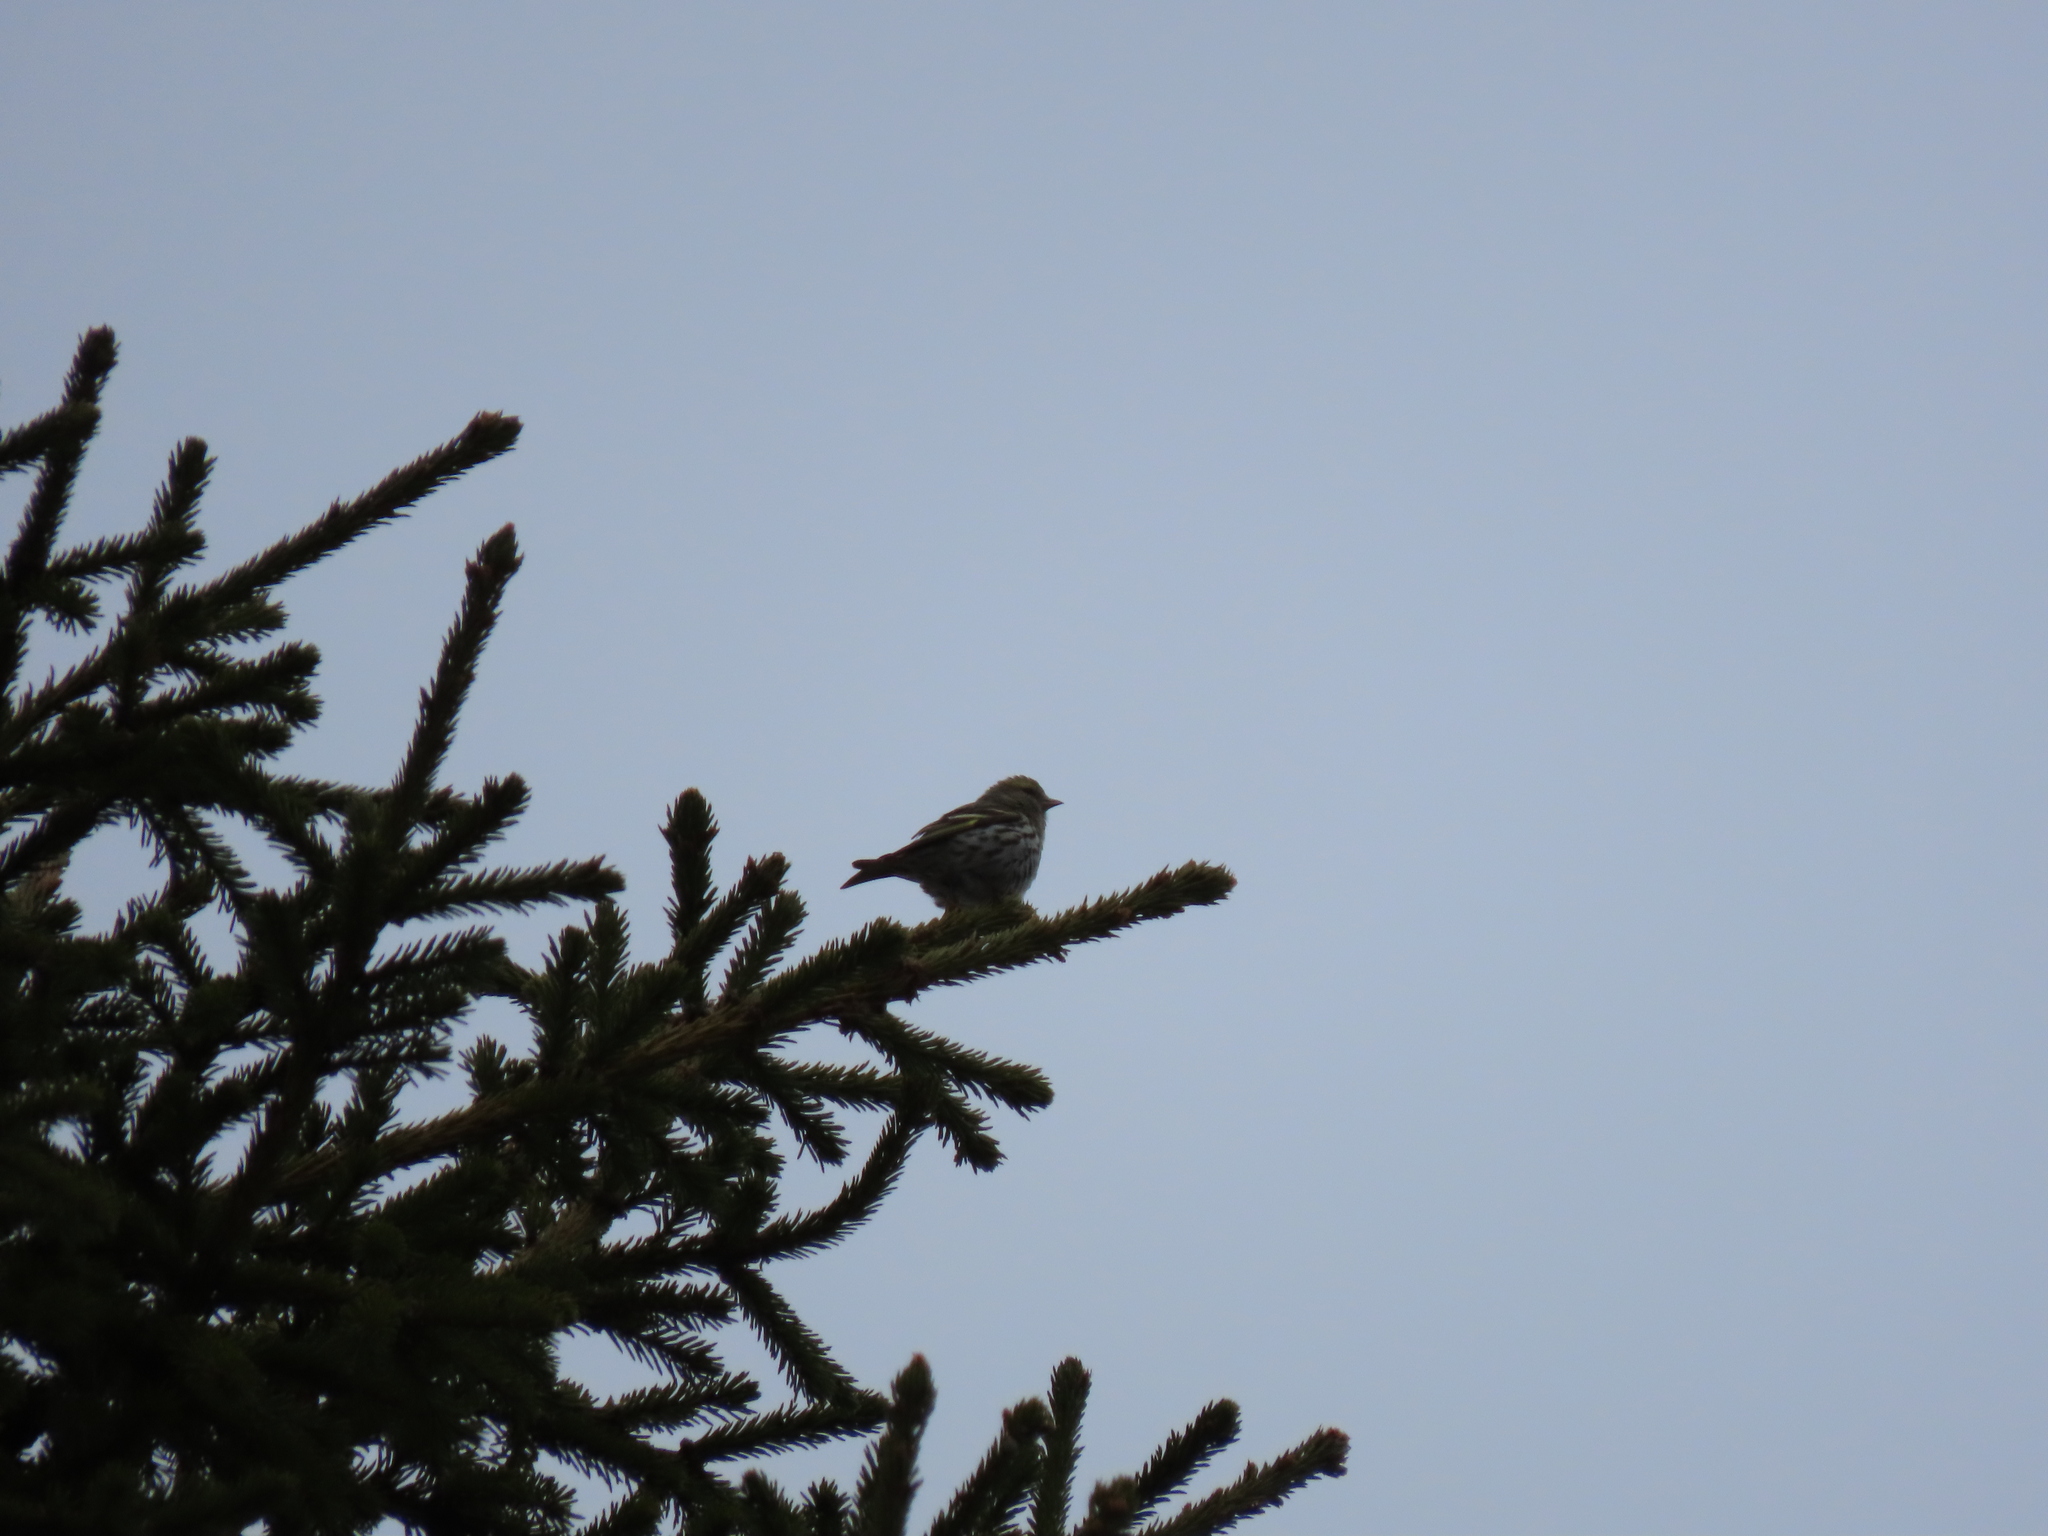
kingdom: Animalia
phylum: Chordata
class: Aves
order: Passeriformes
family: Fringillidae
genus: Spinus
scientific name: Spinus spinus
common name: Eurasian siskin
